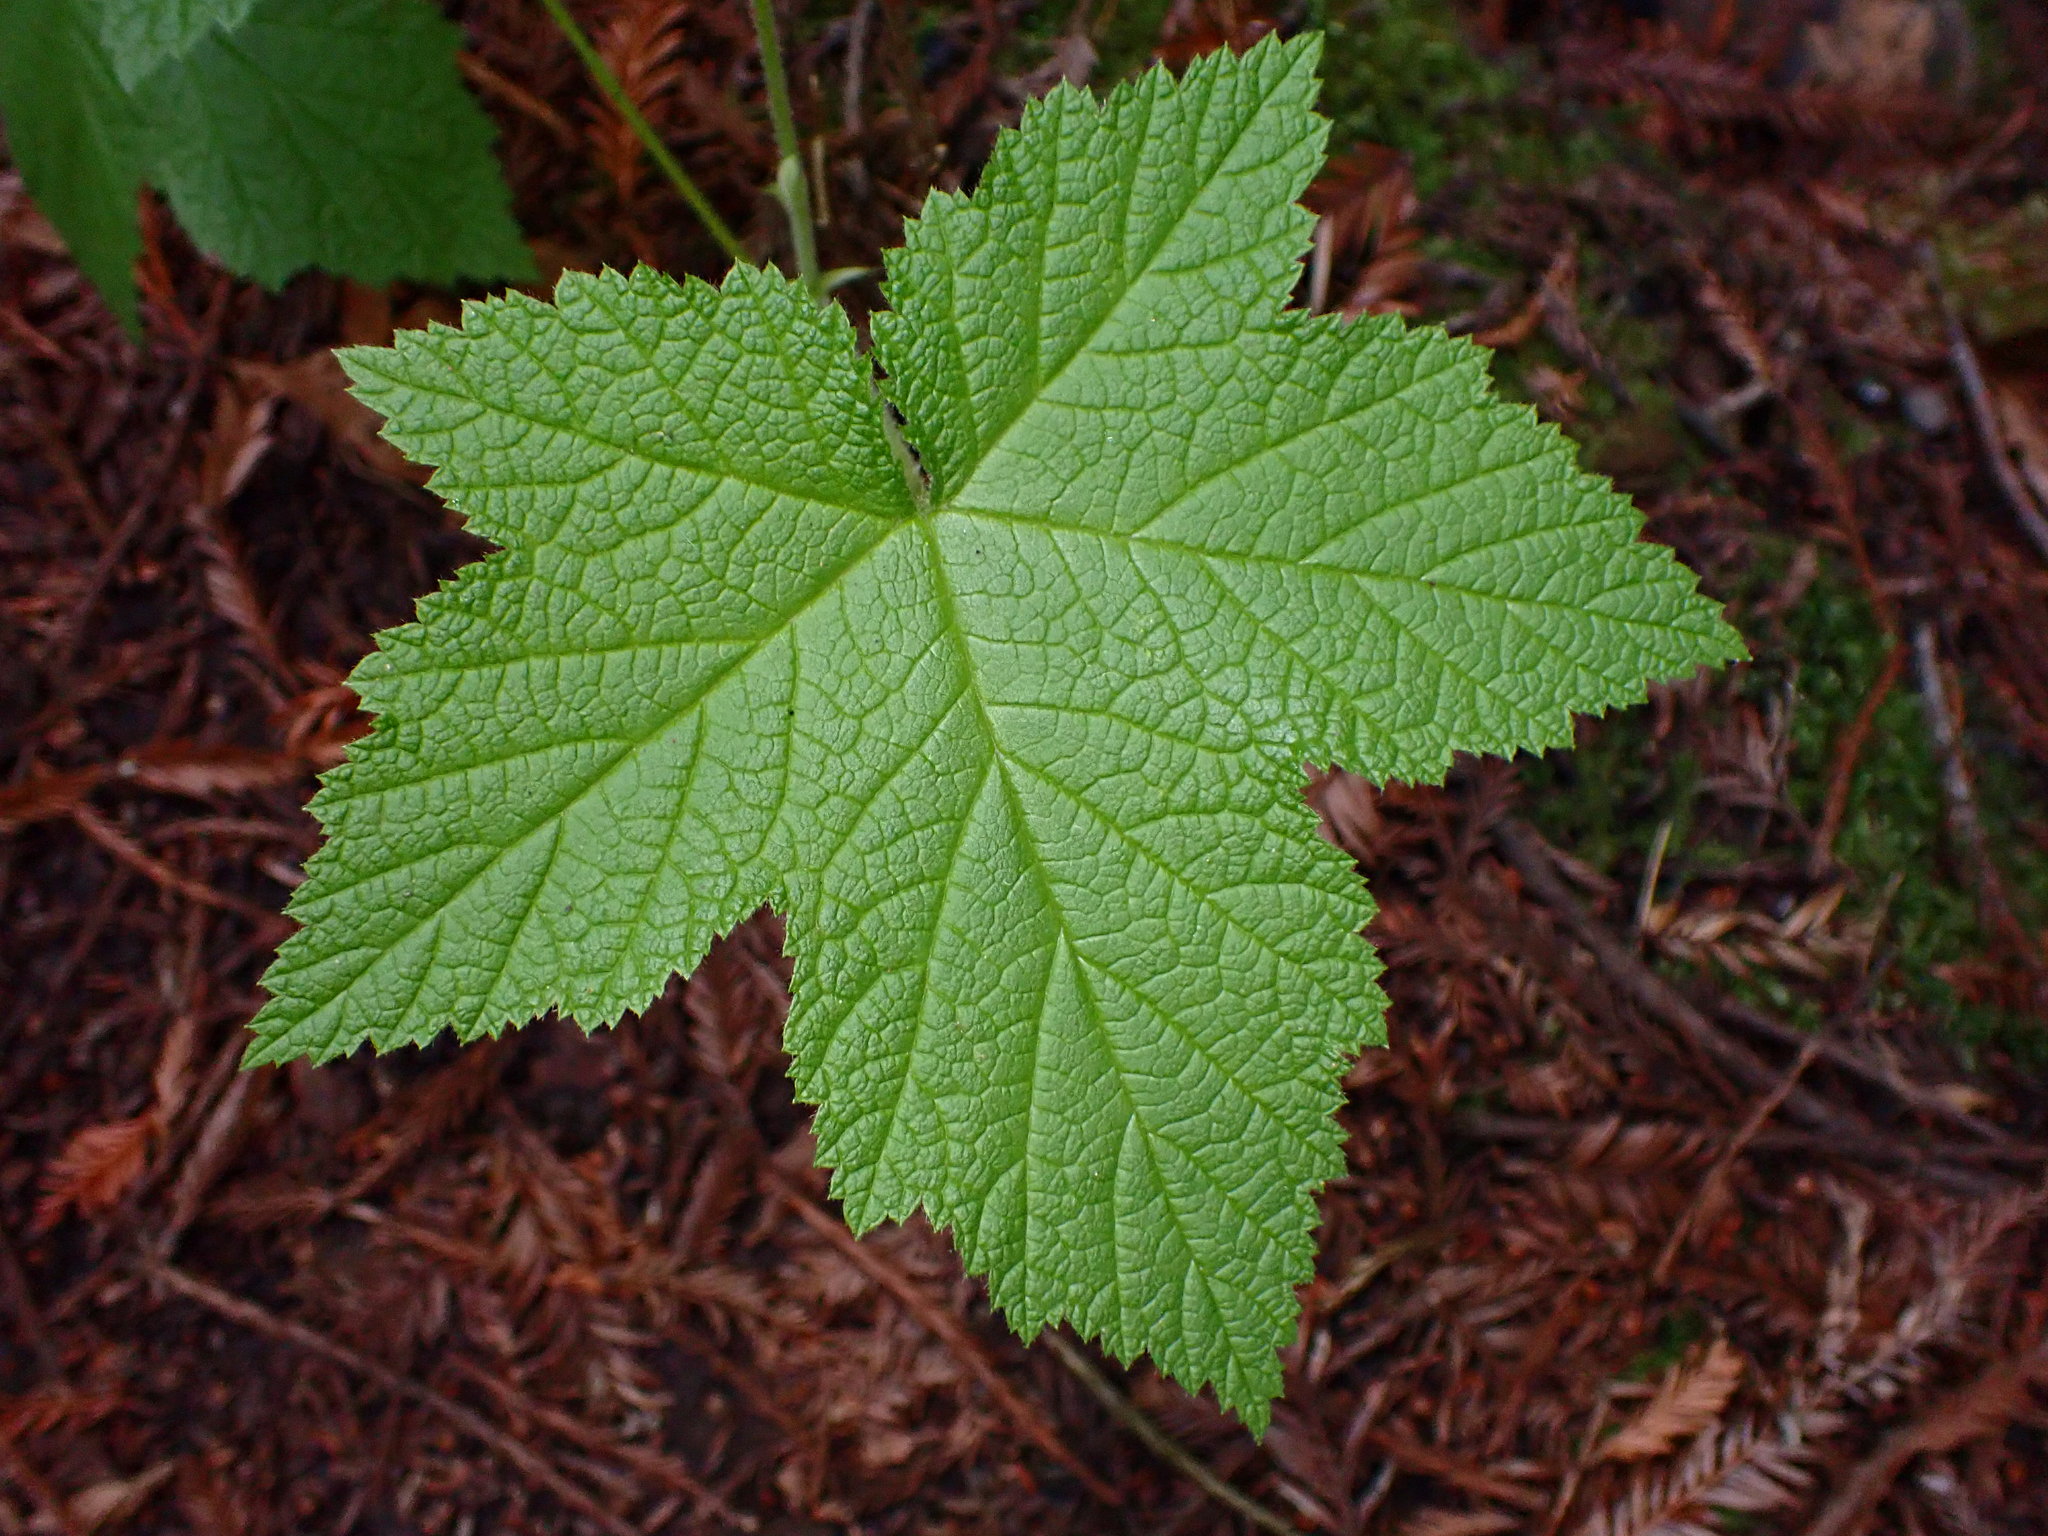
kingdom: Plantae
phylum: Tracheophyta
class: Magnoliopsida
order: Rosales
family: Rosaceae
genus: Rubus
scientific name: Rubus parviflorus
